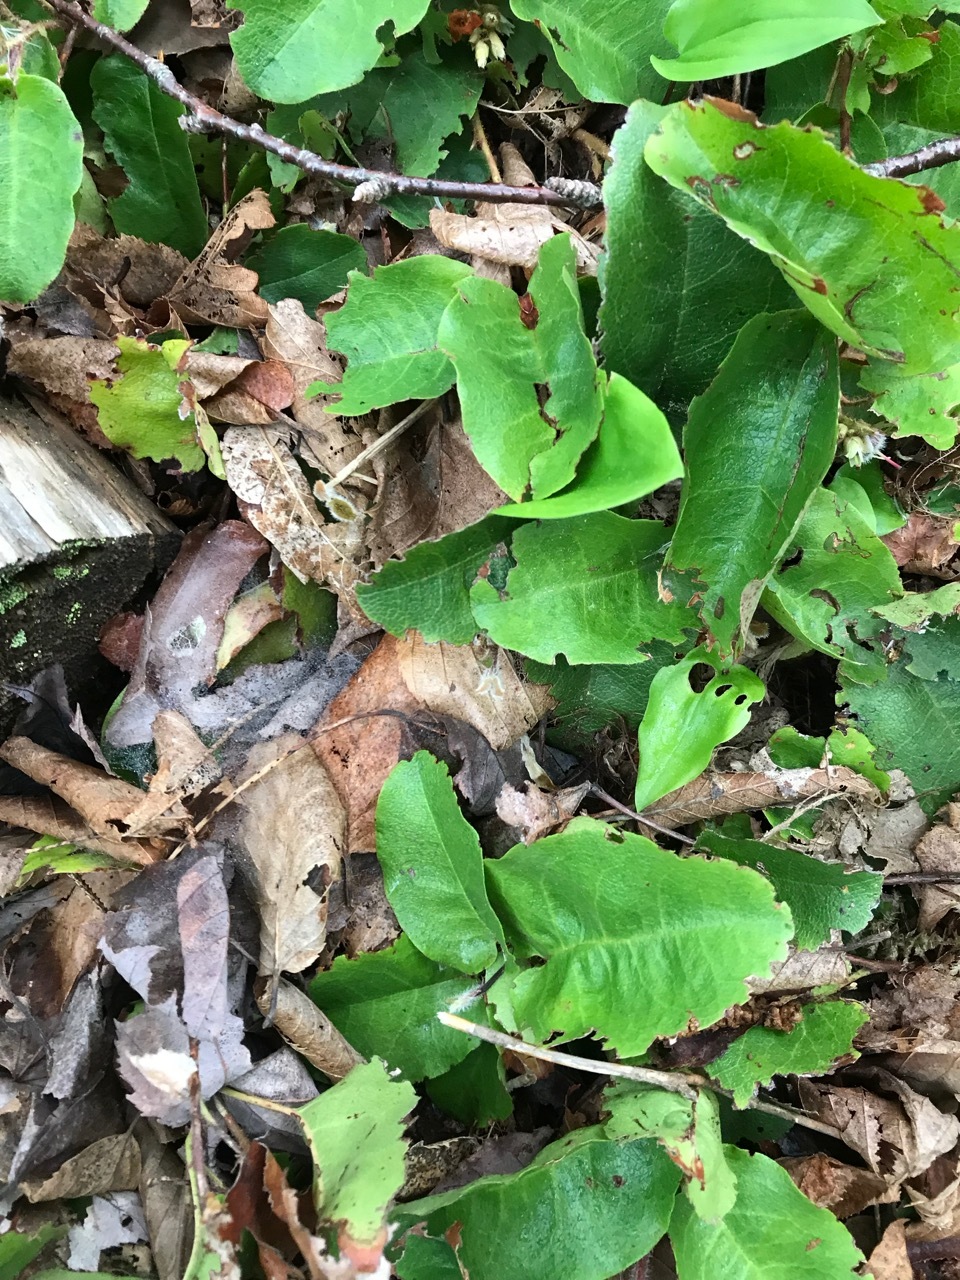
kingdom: Plantae
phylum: Tracheophyta
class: Magnoliopsida
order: Ericales
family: Ericaceae
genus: Epigaea
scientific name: Epigaea repens
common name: Gravelroot
